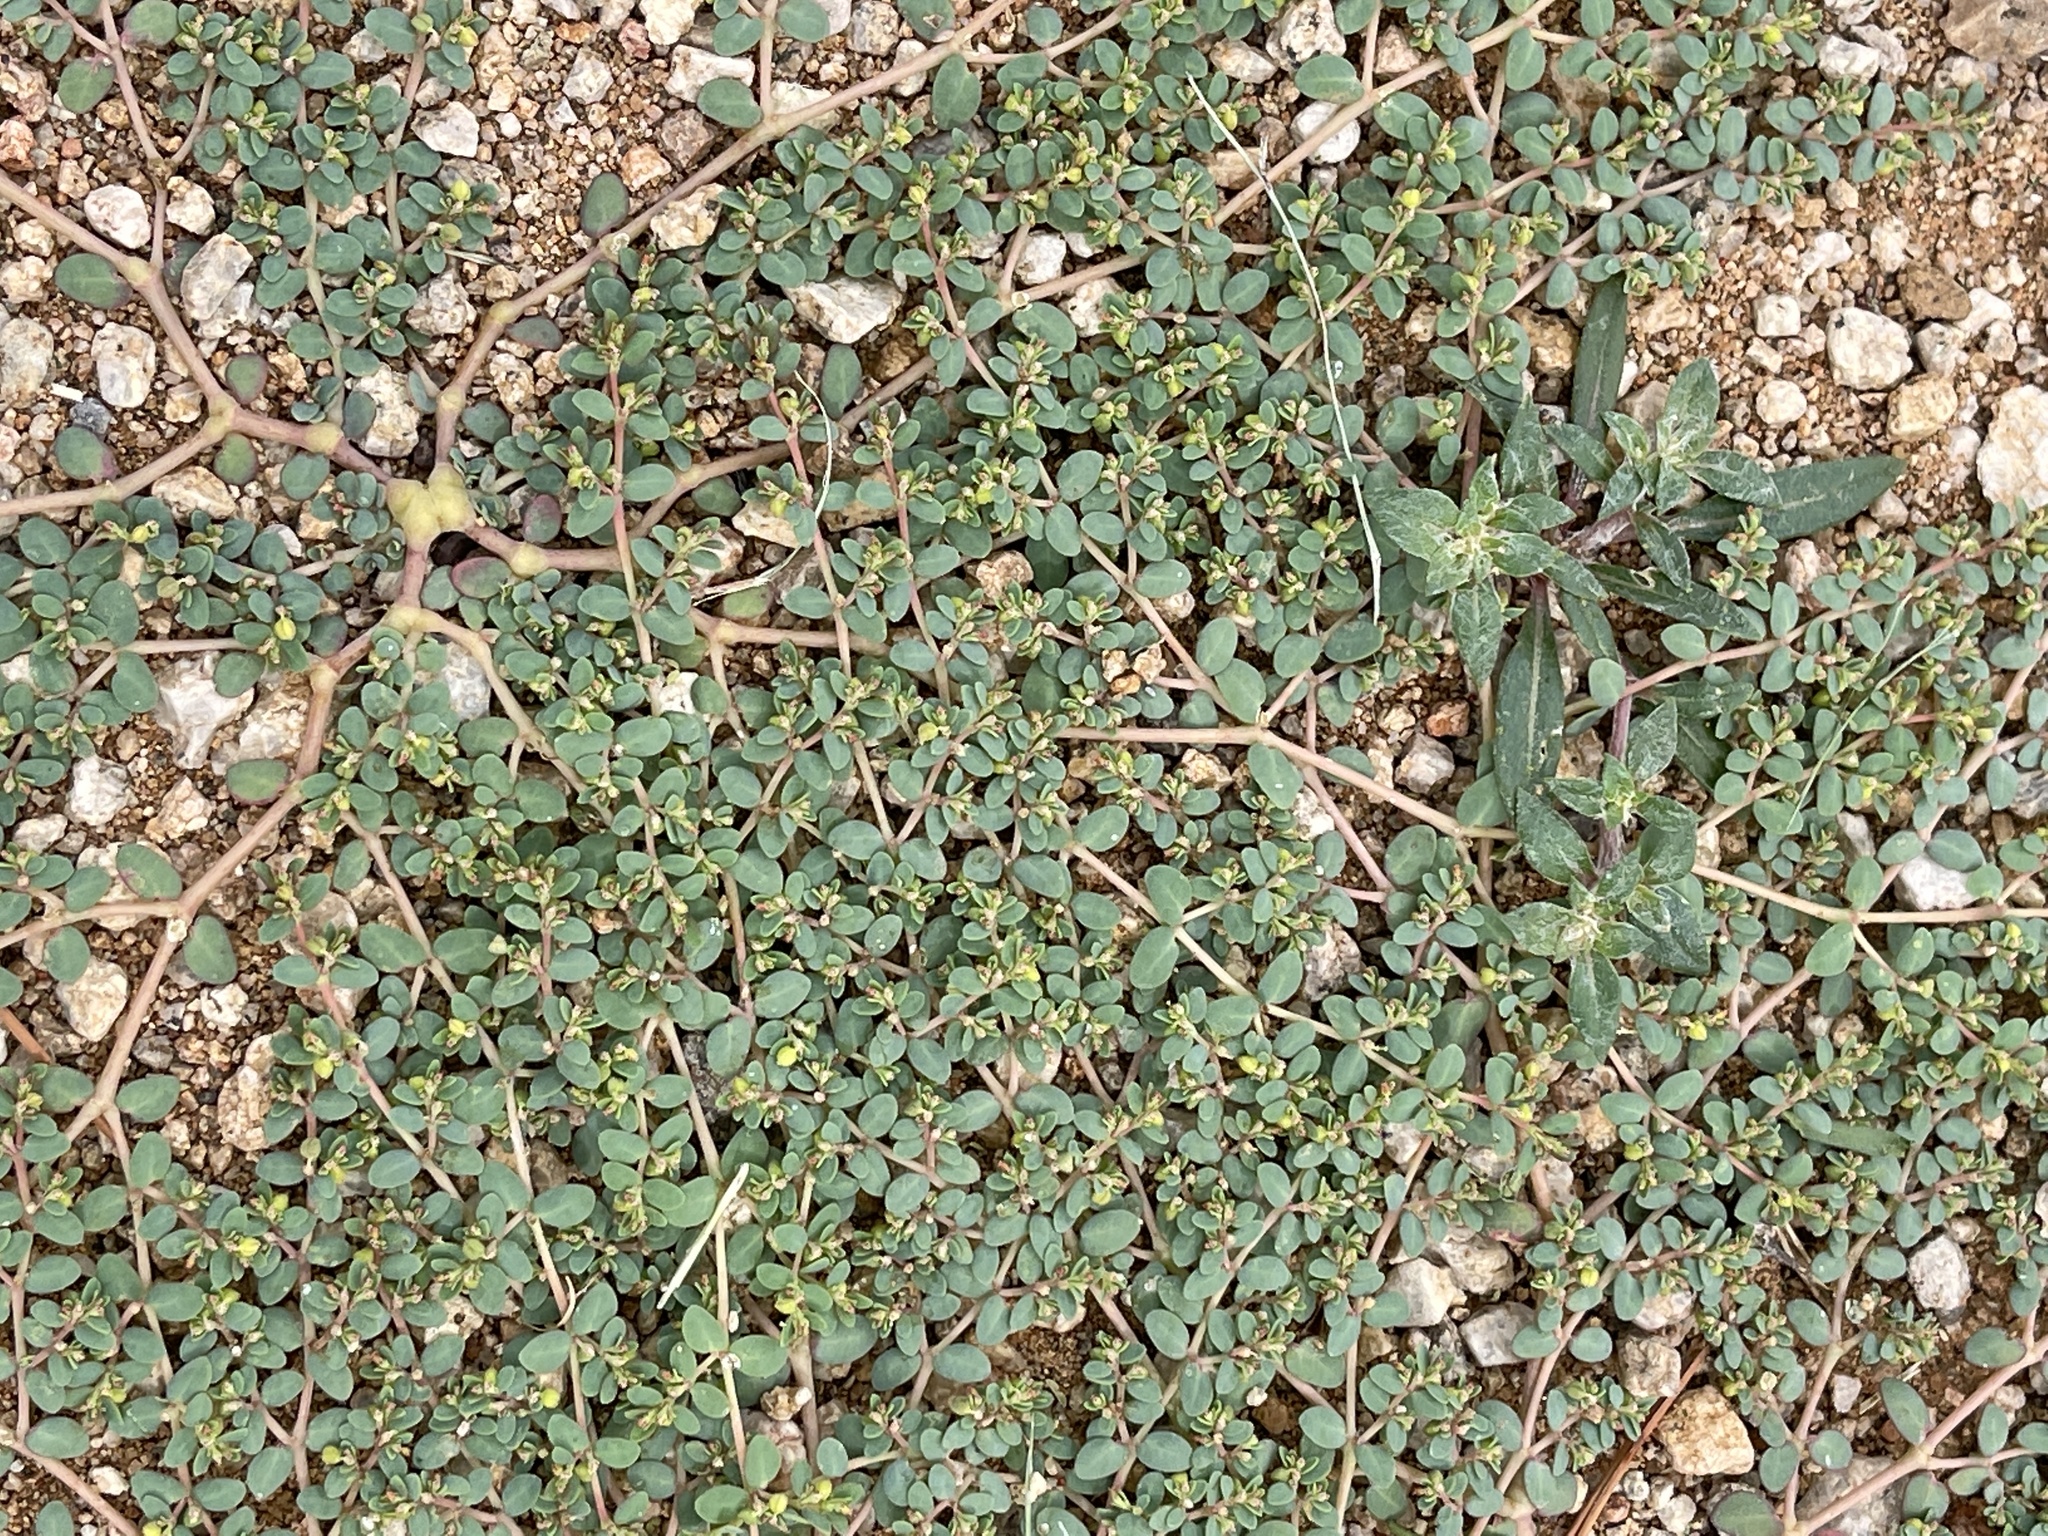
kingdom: Plantae
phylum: Tracheophyta
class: Magnoliopsida
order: Malpighiales
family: Euphorbiaceae
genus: Euphorbia
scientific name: Euphorbia micromera
